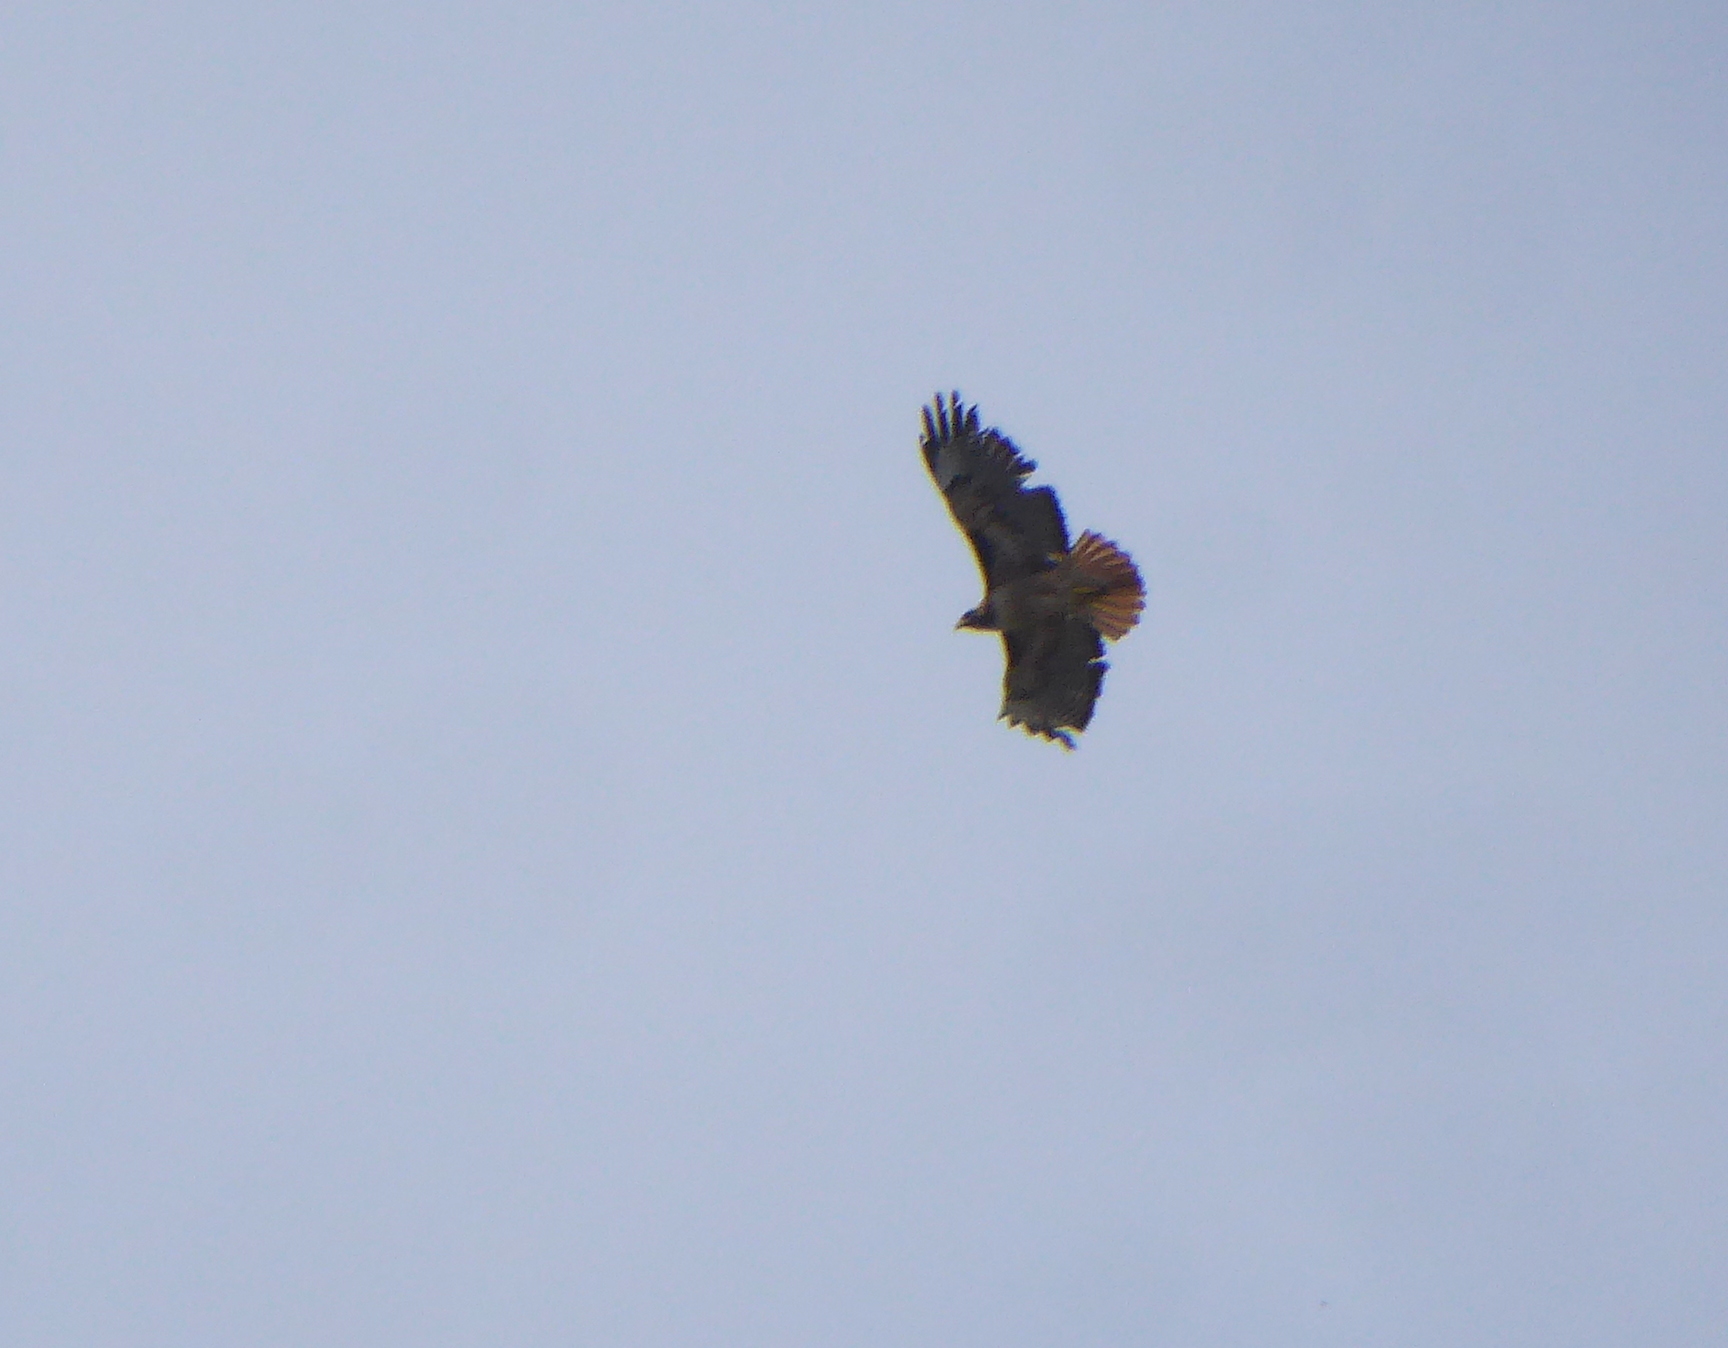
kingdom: Animalia
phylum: Chordata
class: Aves
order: Accipitriformes
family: Accipitridae
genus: Buteo
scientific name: Buteo jamaicensis
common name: Red-tailed hawk
